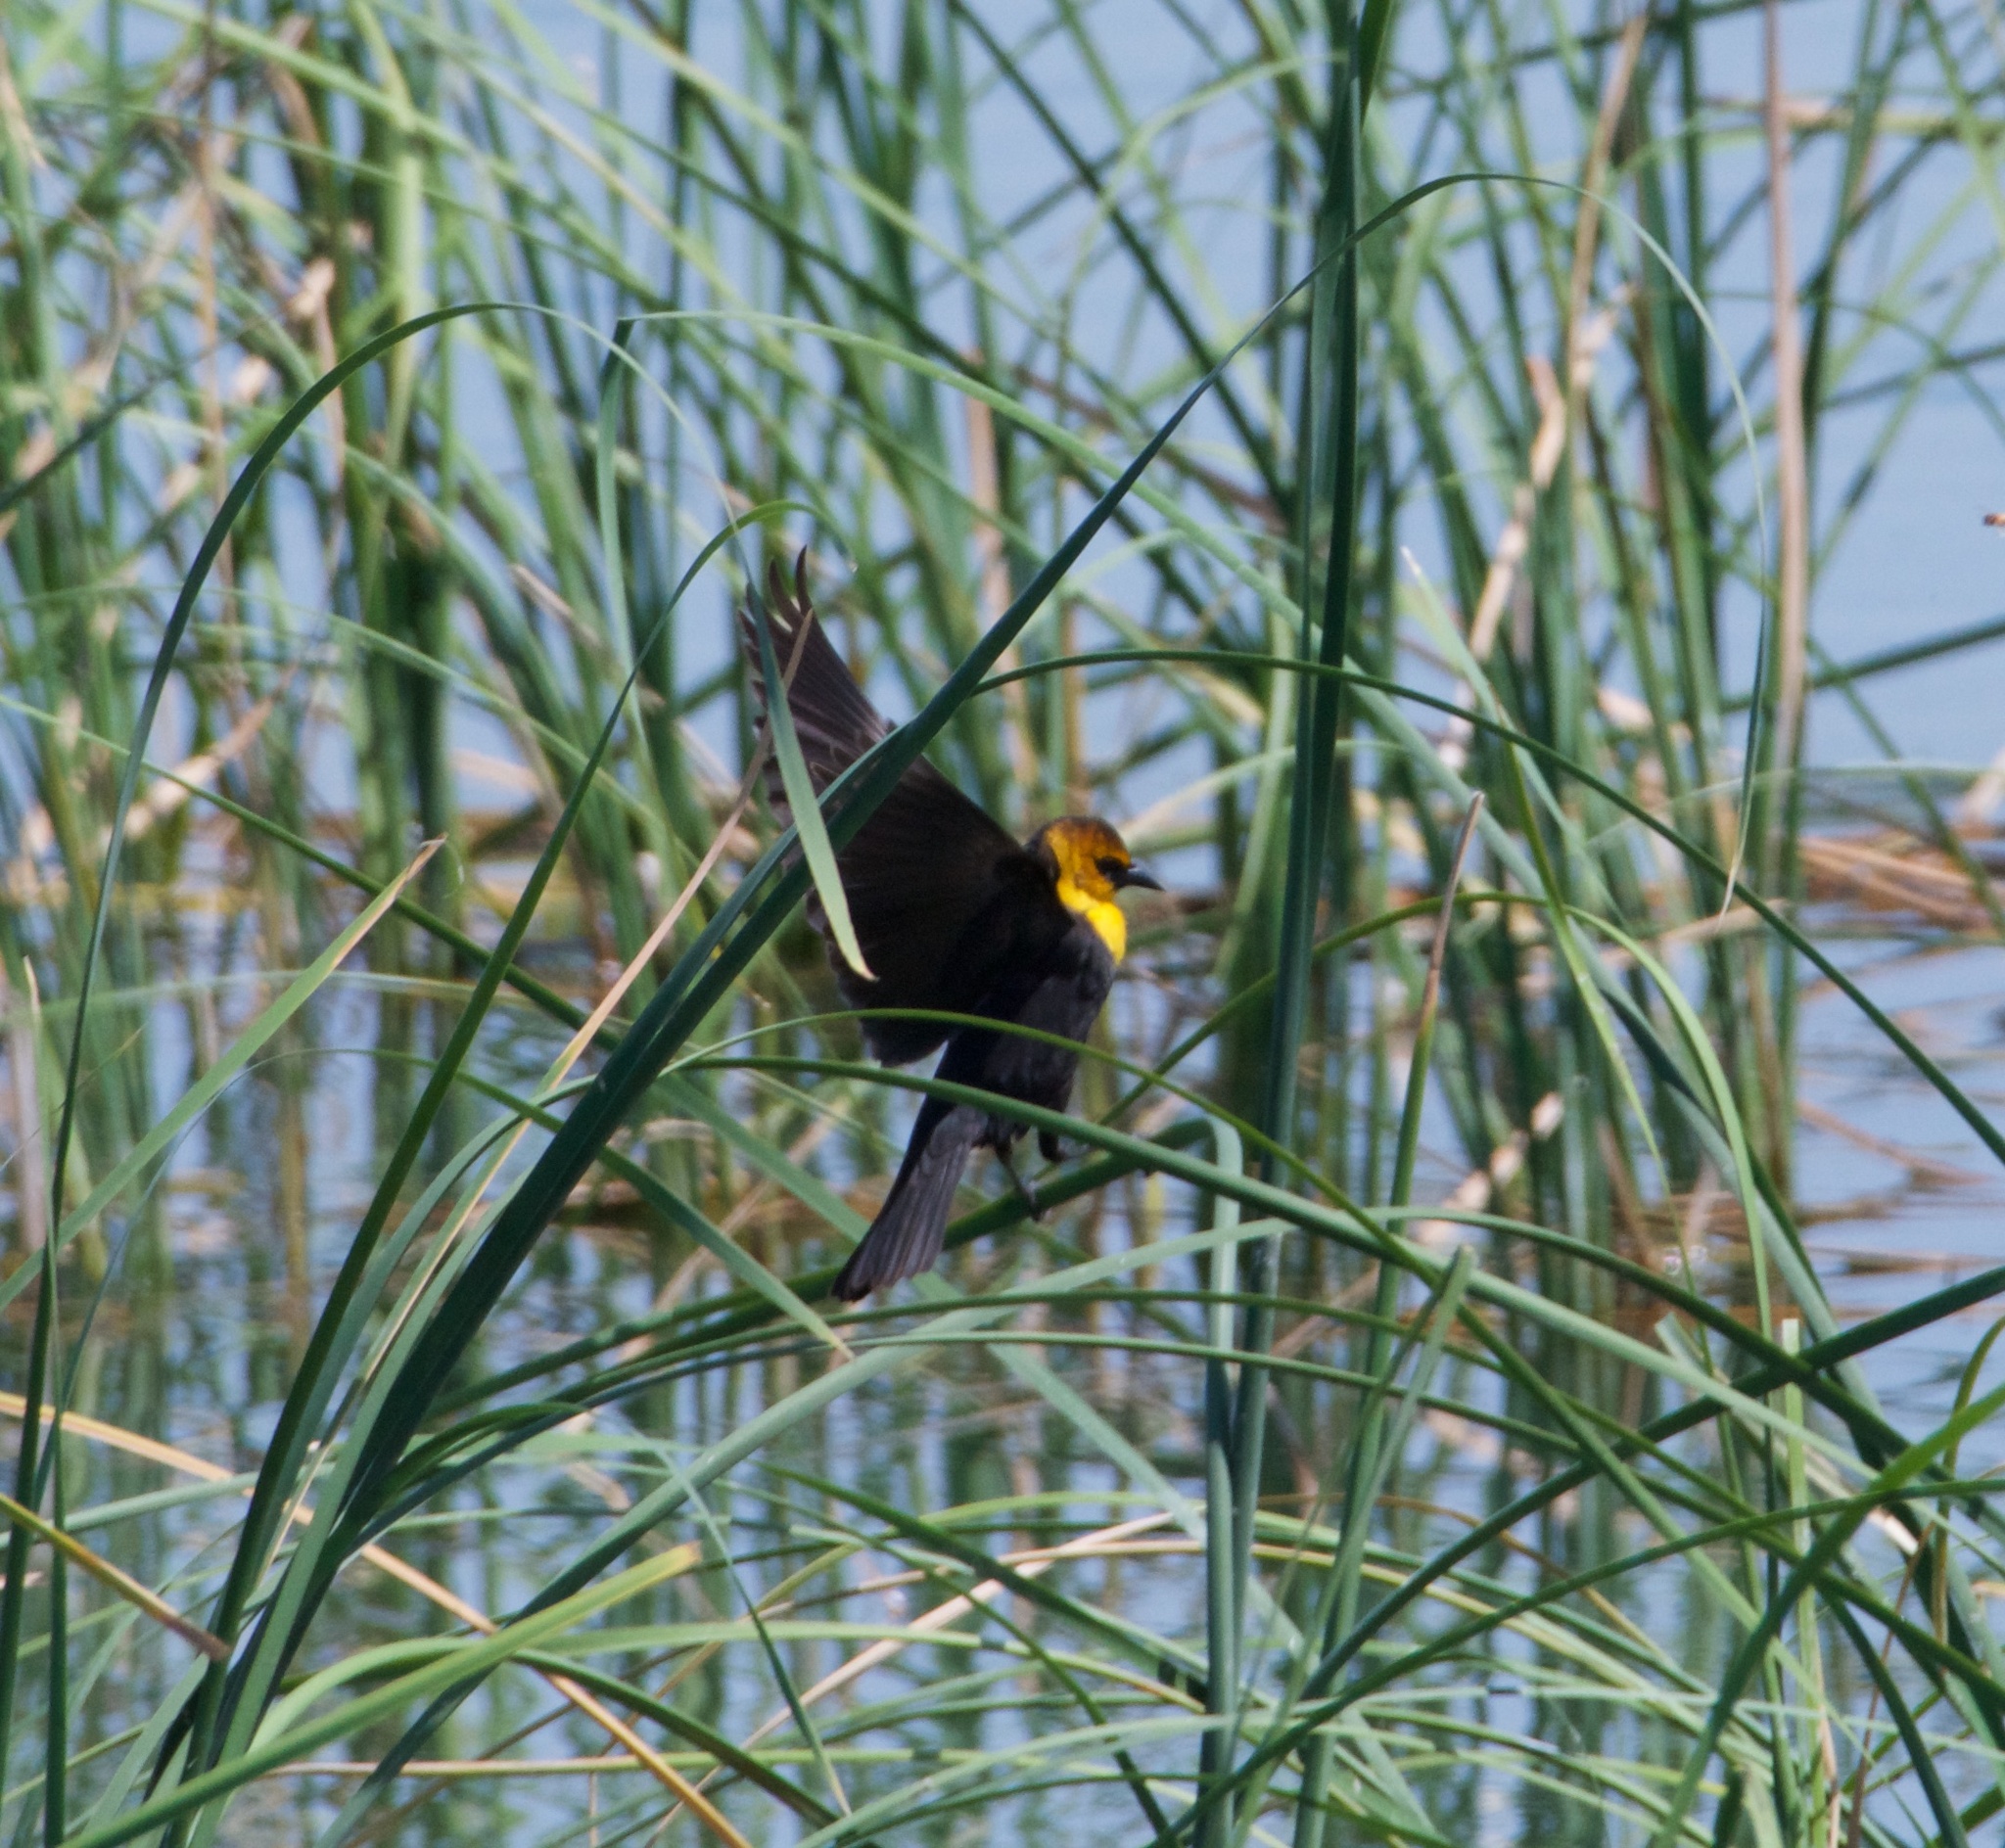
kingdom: Animalia
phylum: Chordata
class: Aves
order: Passeriformes
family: Icteridae
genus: Xanthocephalus
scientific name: Xanthocephalus xanthocephalus
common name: Yellow-headed blackbird
